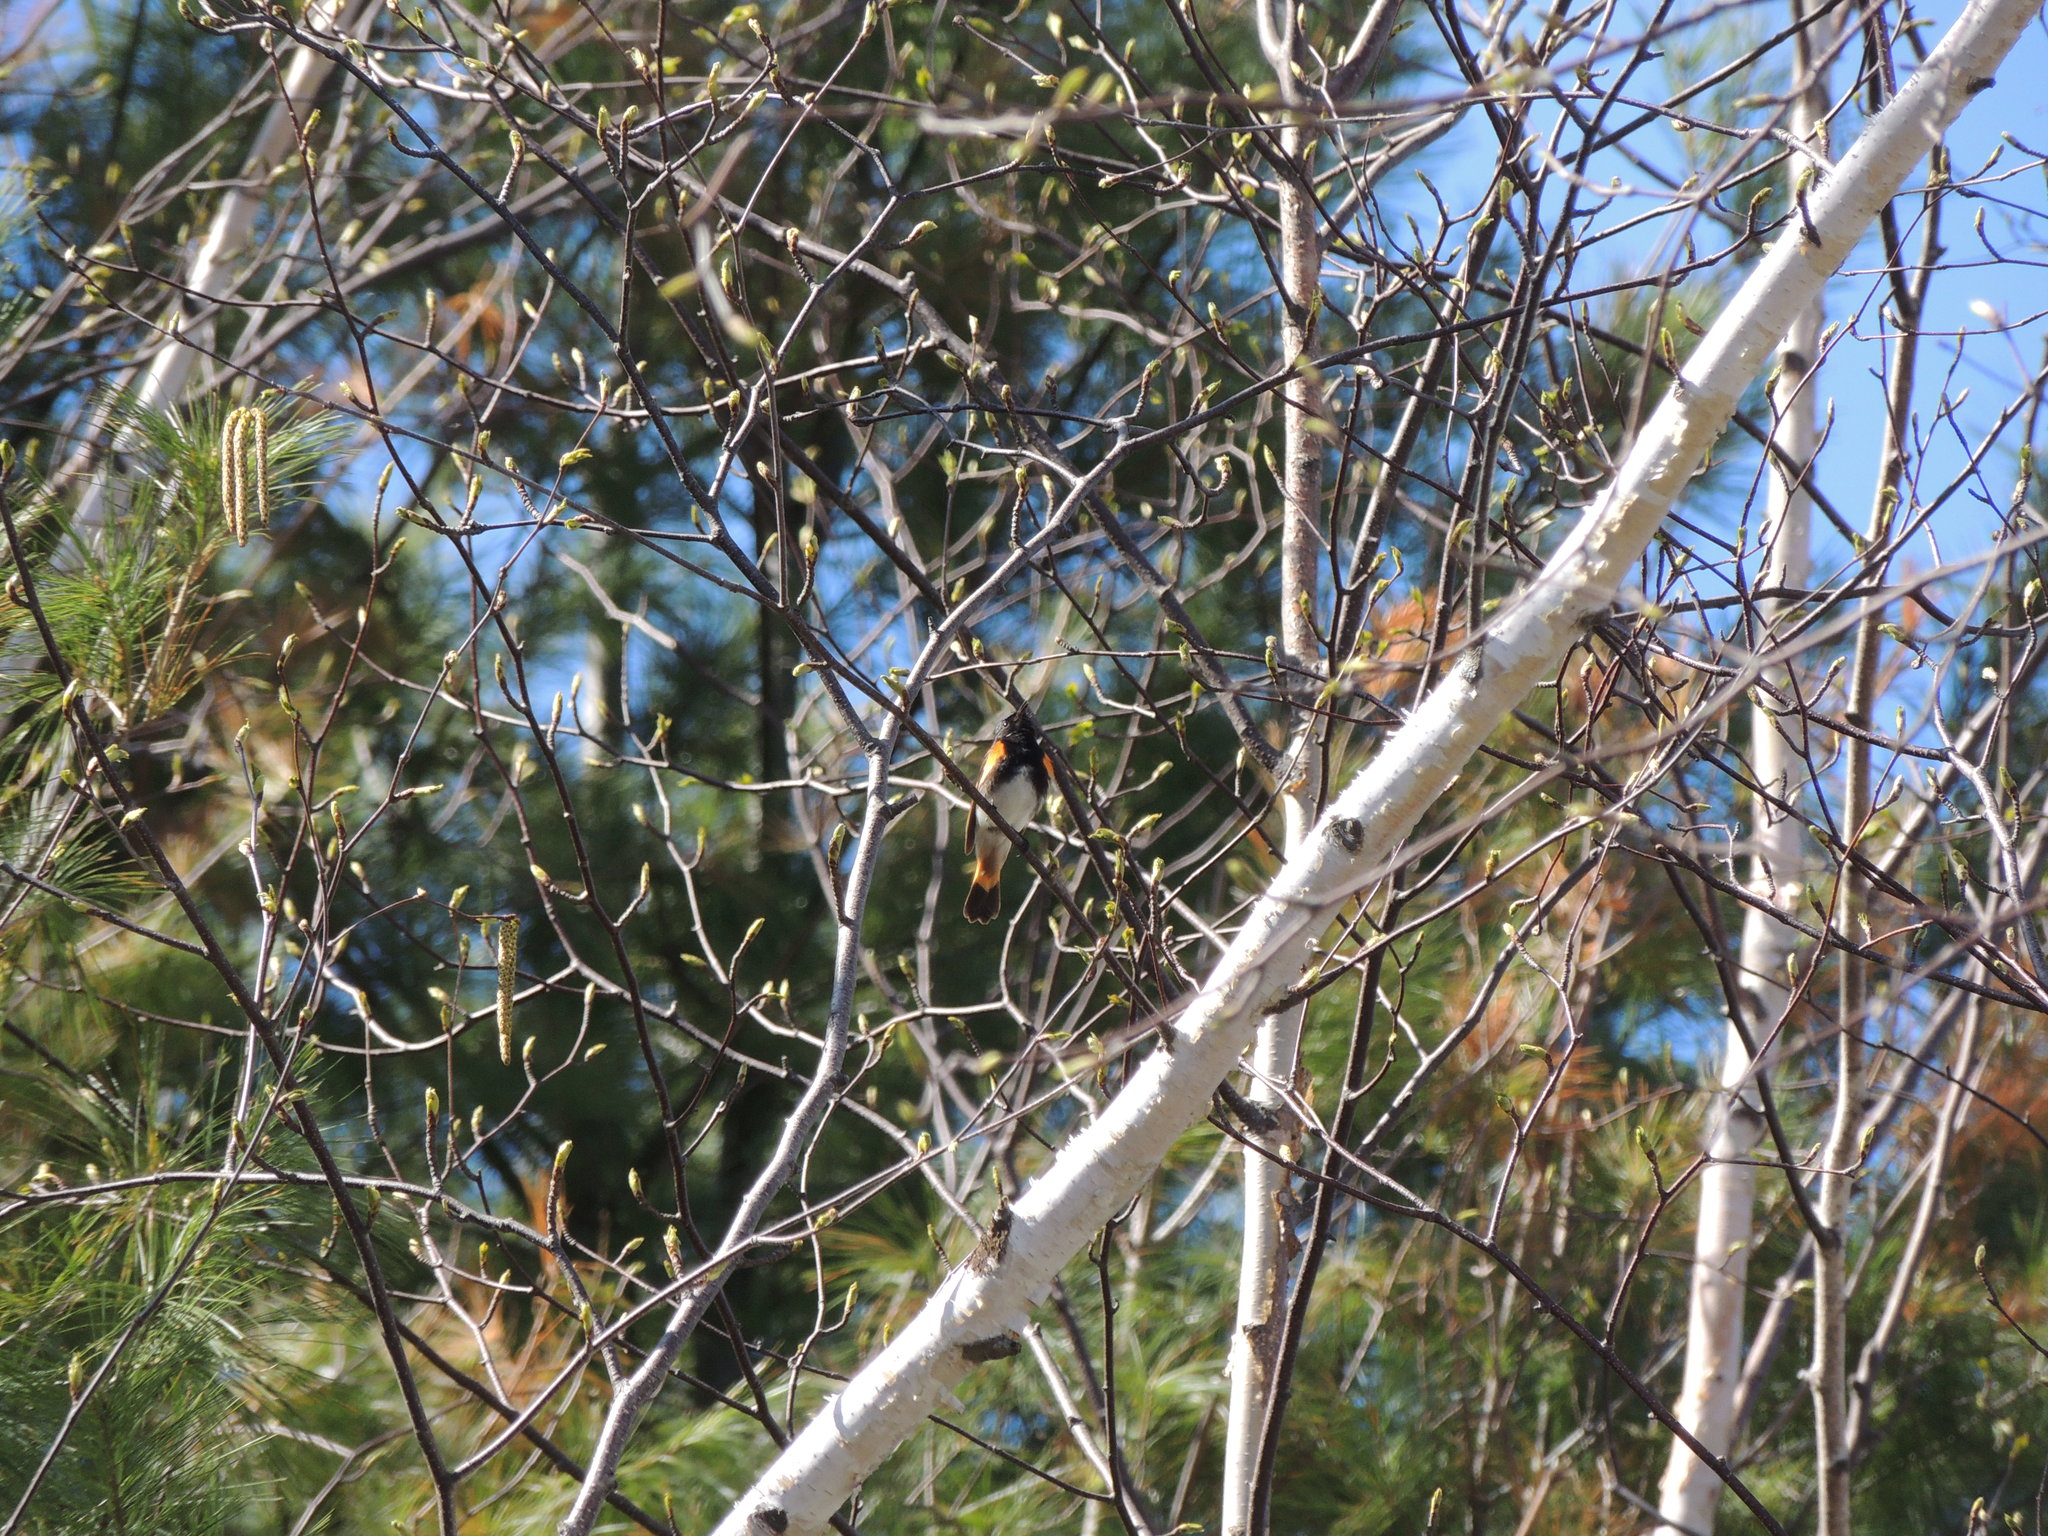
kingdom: Animalia
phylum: Chordata
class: Aves
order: Passeriformes
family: Parulidae
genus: Setophaga
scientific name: Setophaga ruticilla
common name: American redstart
